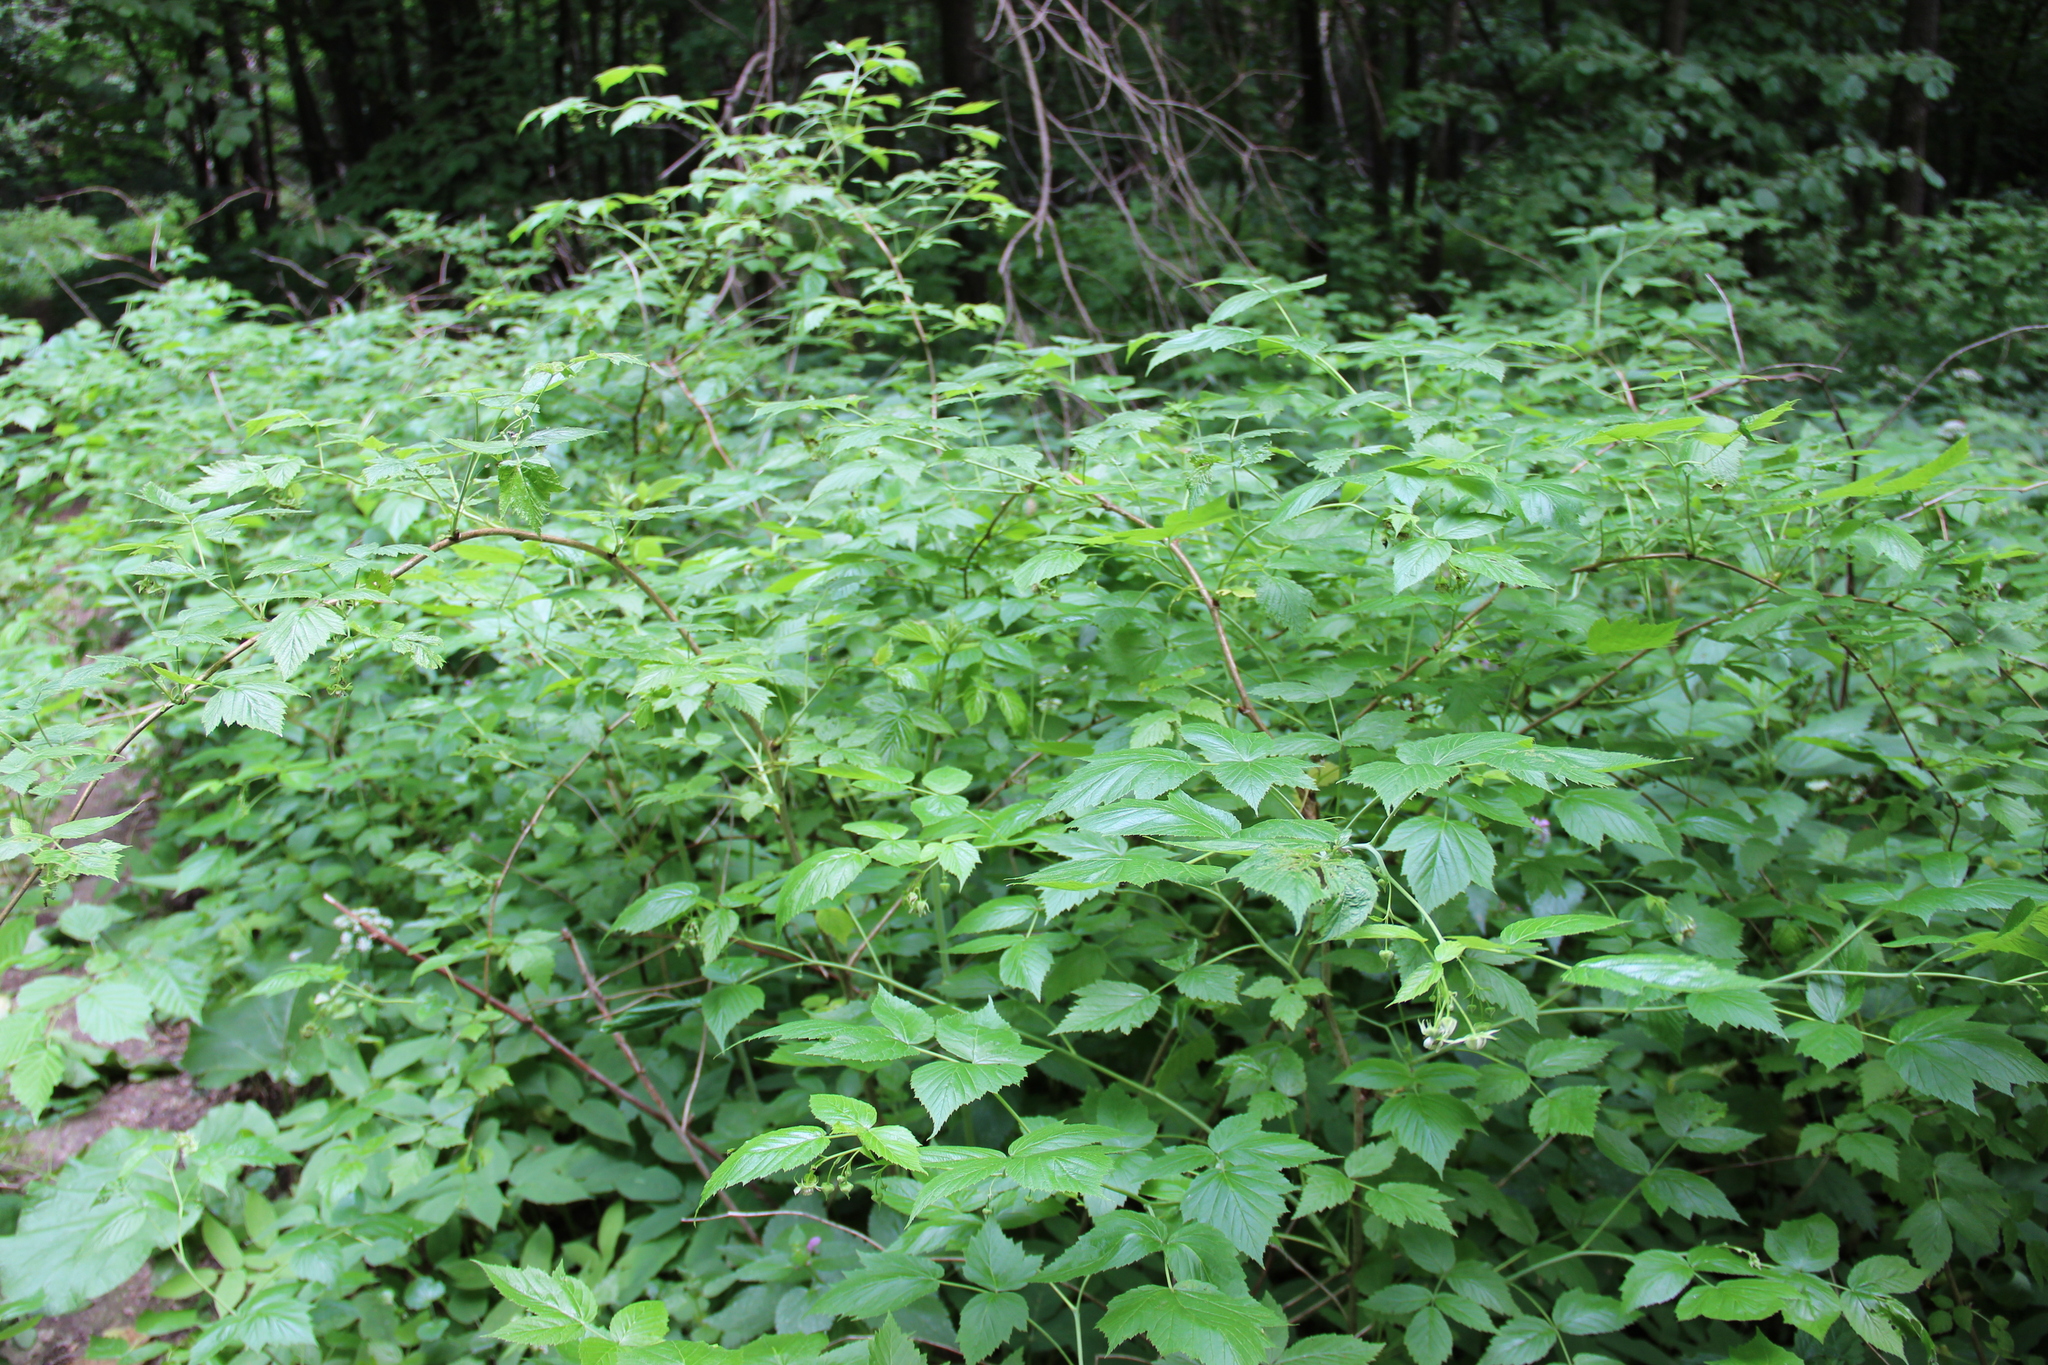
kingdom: Plantae
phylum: Tracheophyta
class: Magnoliopsida
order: Rosales
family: Rosaceae
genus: Rubus
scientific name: Rubus idaeus
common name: Raspberry
